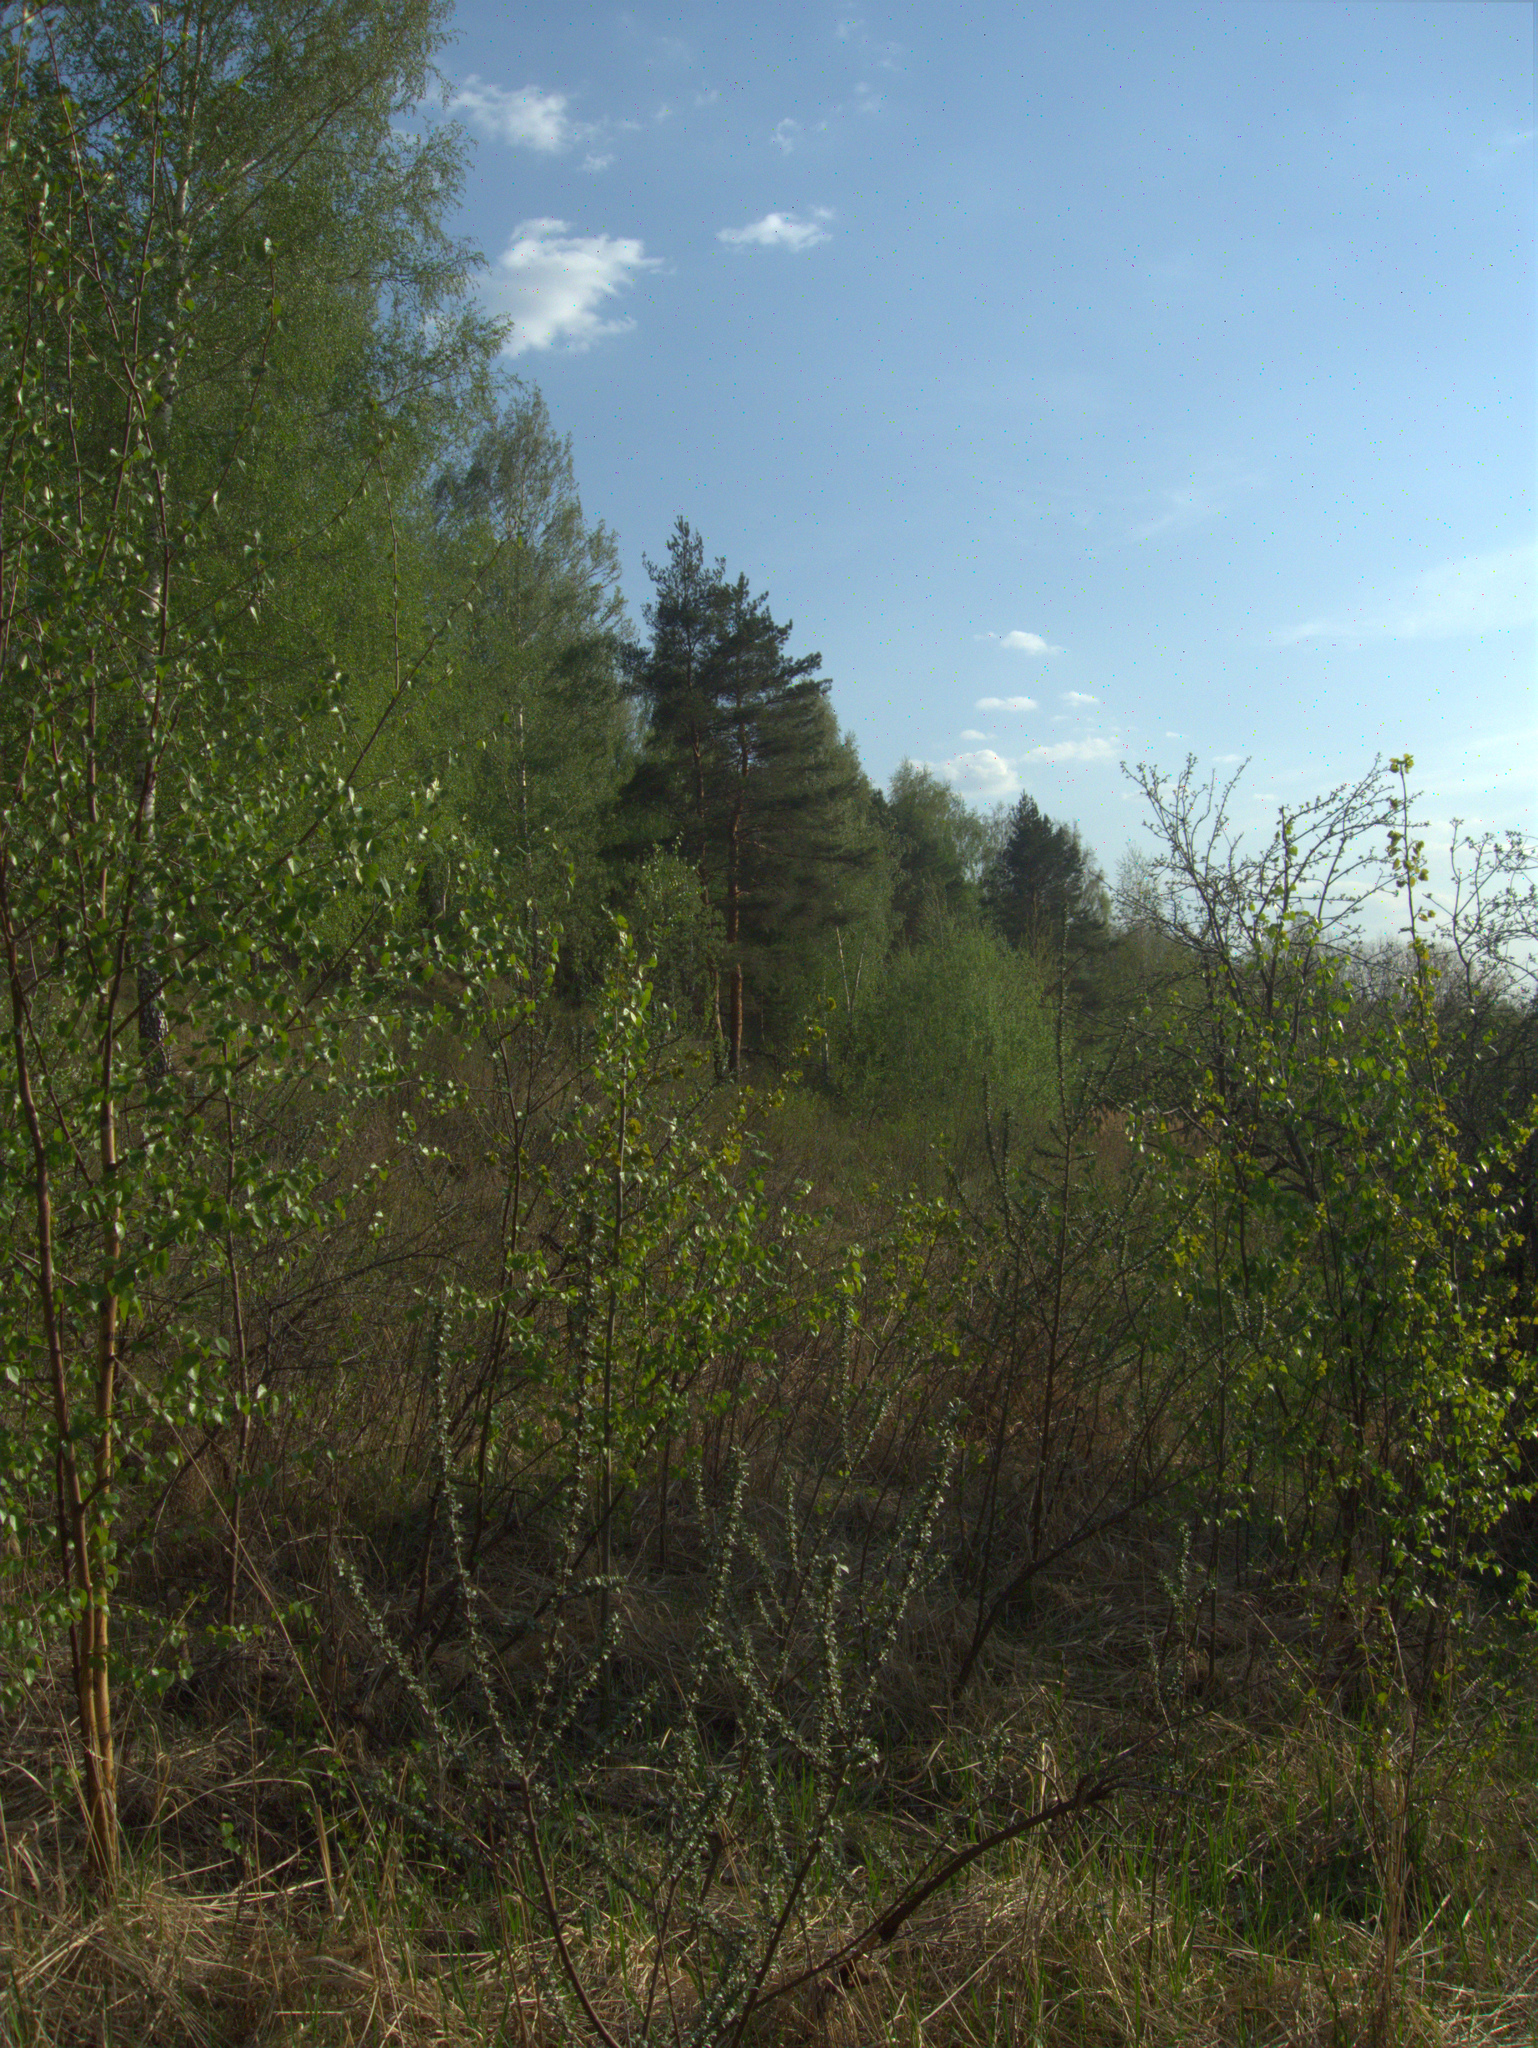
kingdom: Plantae
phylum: Tracheophyta
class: Magnoliopsida
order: Rosales
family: Elaeagnaceae
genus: Hippophae
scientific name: Hippophae rhamnoides
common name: Sea-buckthorn
